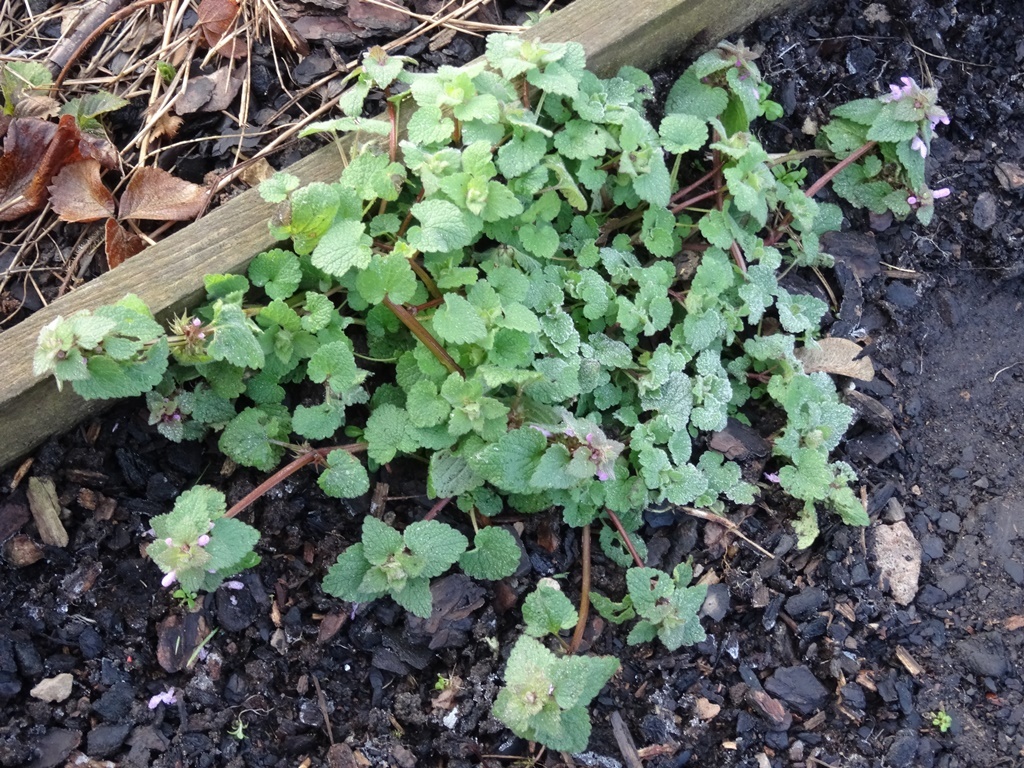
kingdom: Plantae
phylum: Tracheophyta
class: Magnoliopsida
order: Lamiales
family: Lamiaceae
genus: Lamium
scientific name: Lamium purpureum
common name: Red dead-nettle
